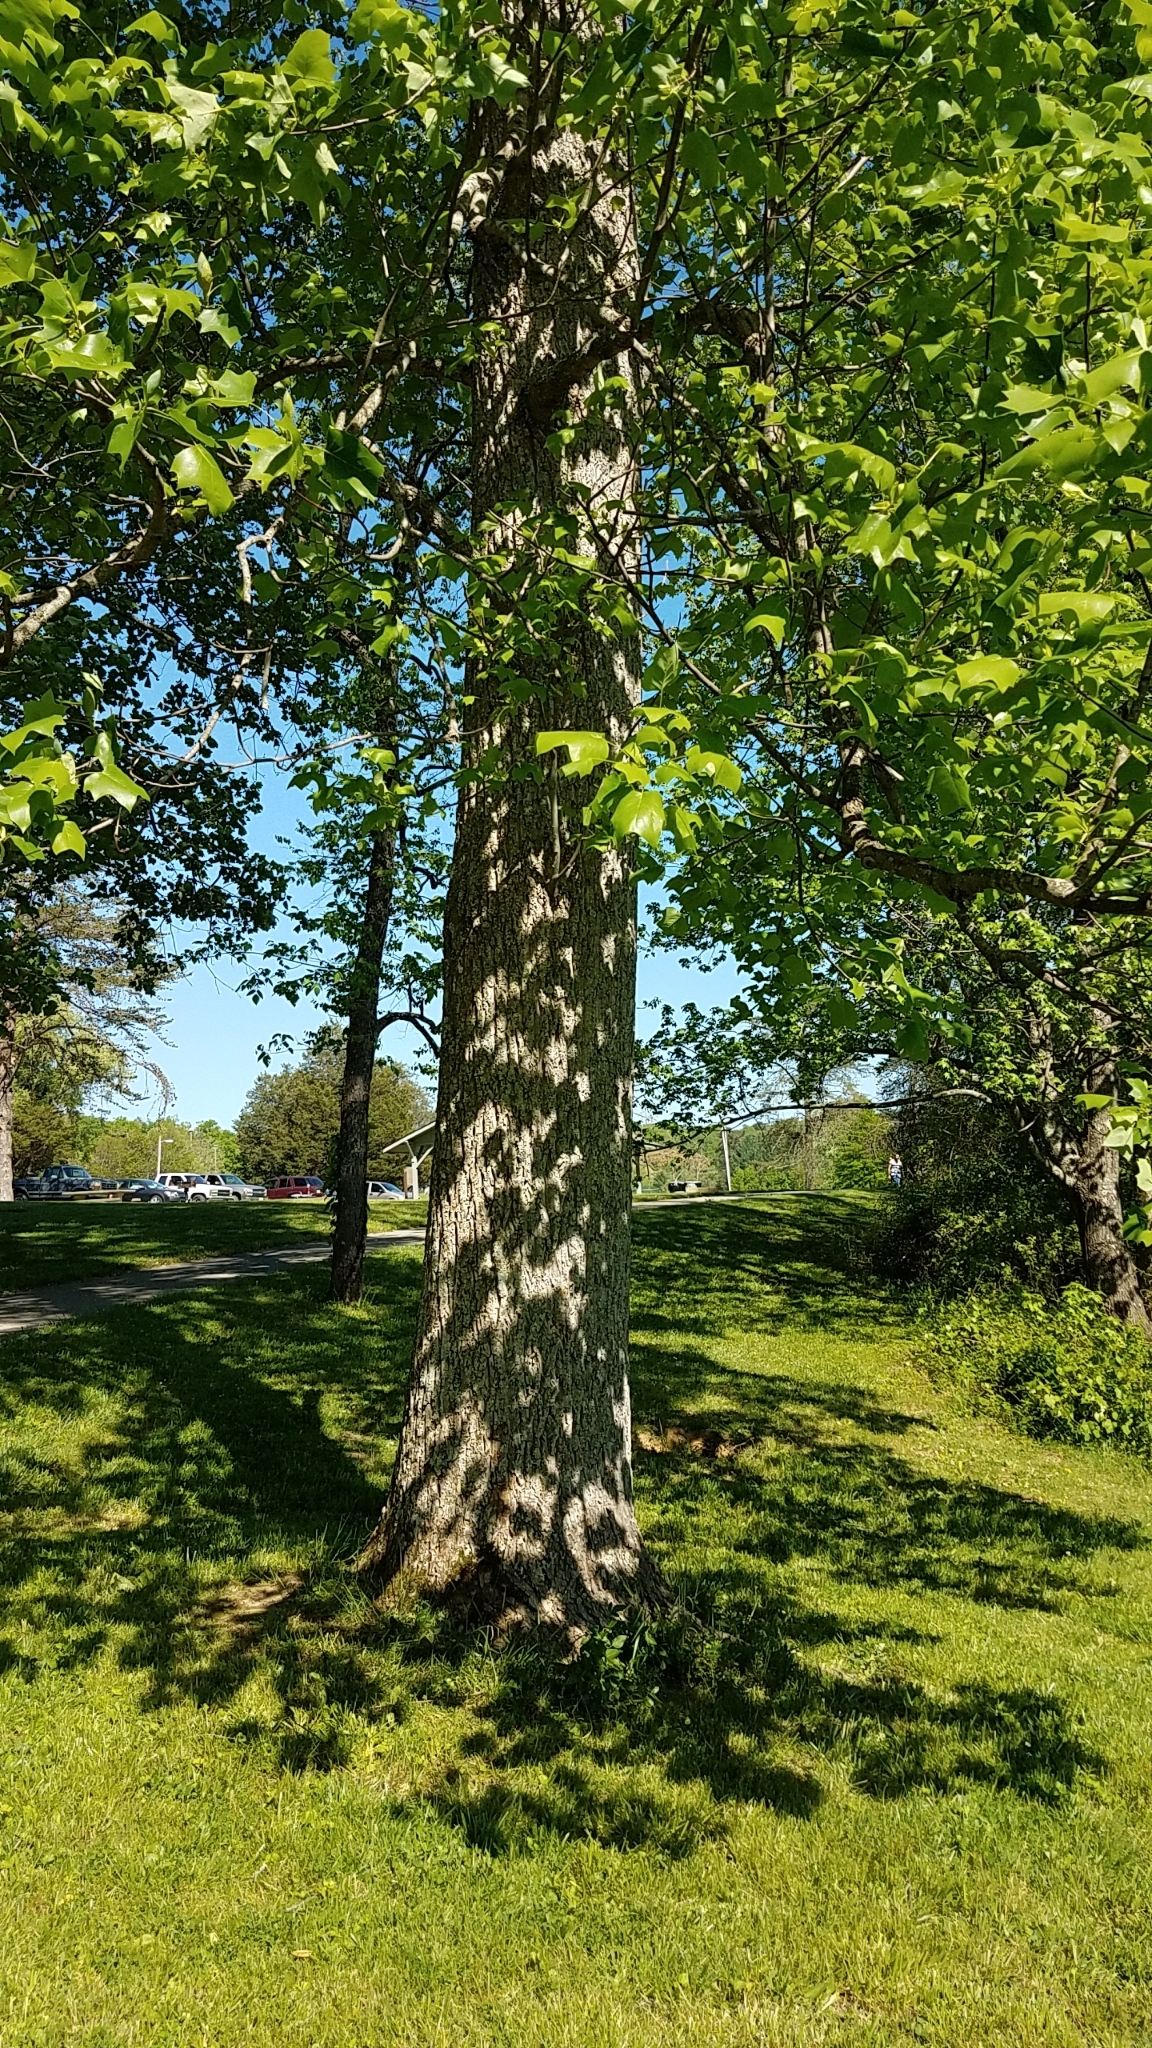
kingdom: Plantae
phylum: Tracheophyta
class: Magnoliopsida
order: Magnoliales
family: Magnoliaceae
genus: Liriodendron
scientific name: Liriodendron tulipifera
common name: Tulip tree
